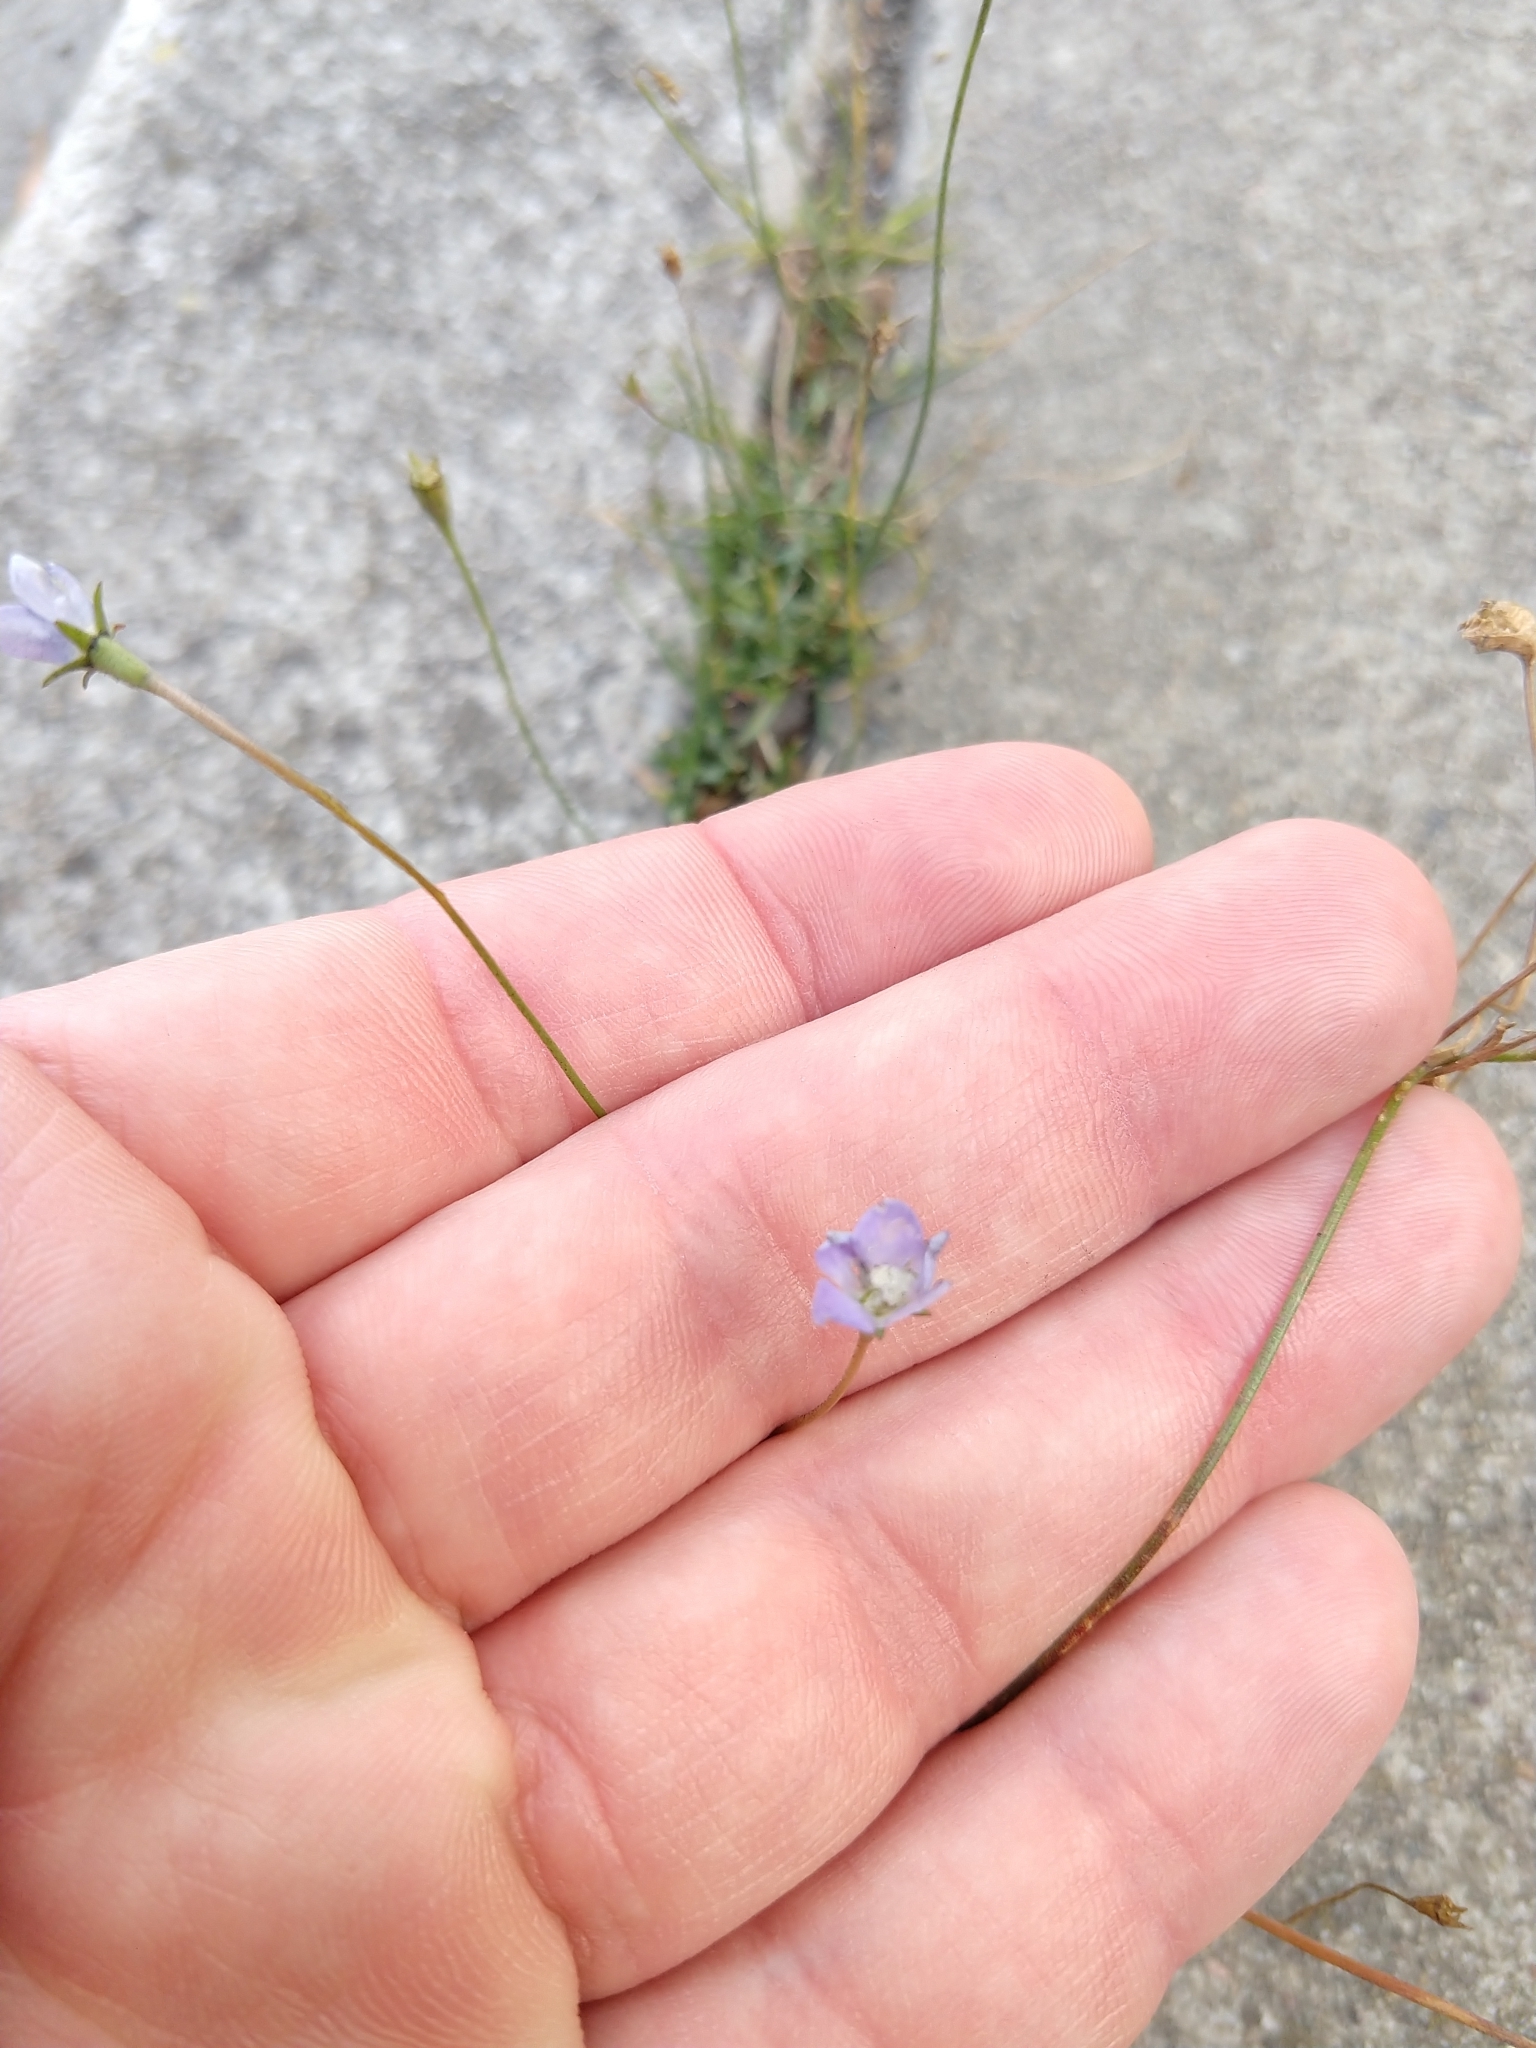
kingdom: Plantae
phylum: Tracheophyta
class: Magnoliopsida
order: Asterales
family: Campanulaceae
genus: Wahlenbergia
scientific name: Wahlenbergia marginata
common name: Southern rockbell
